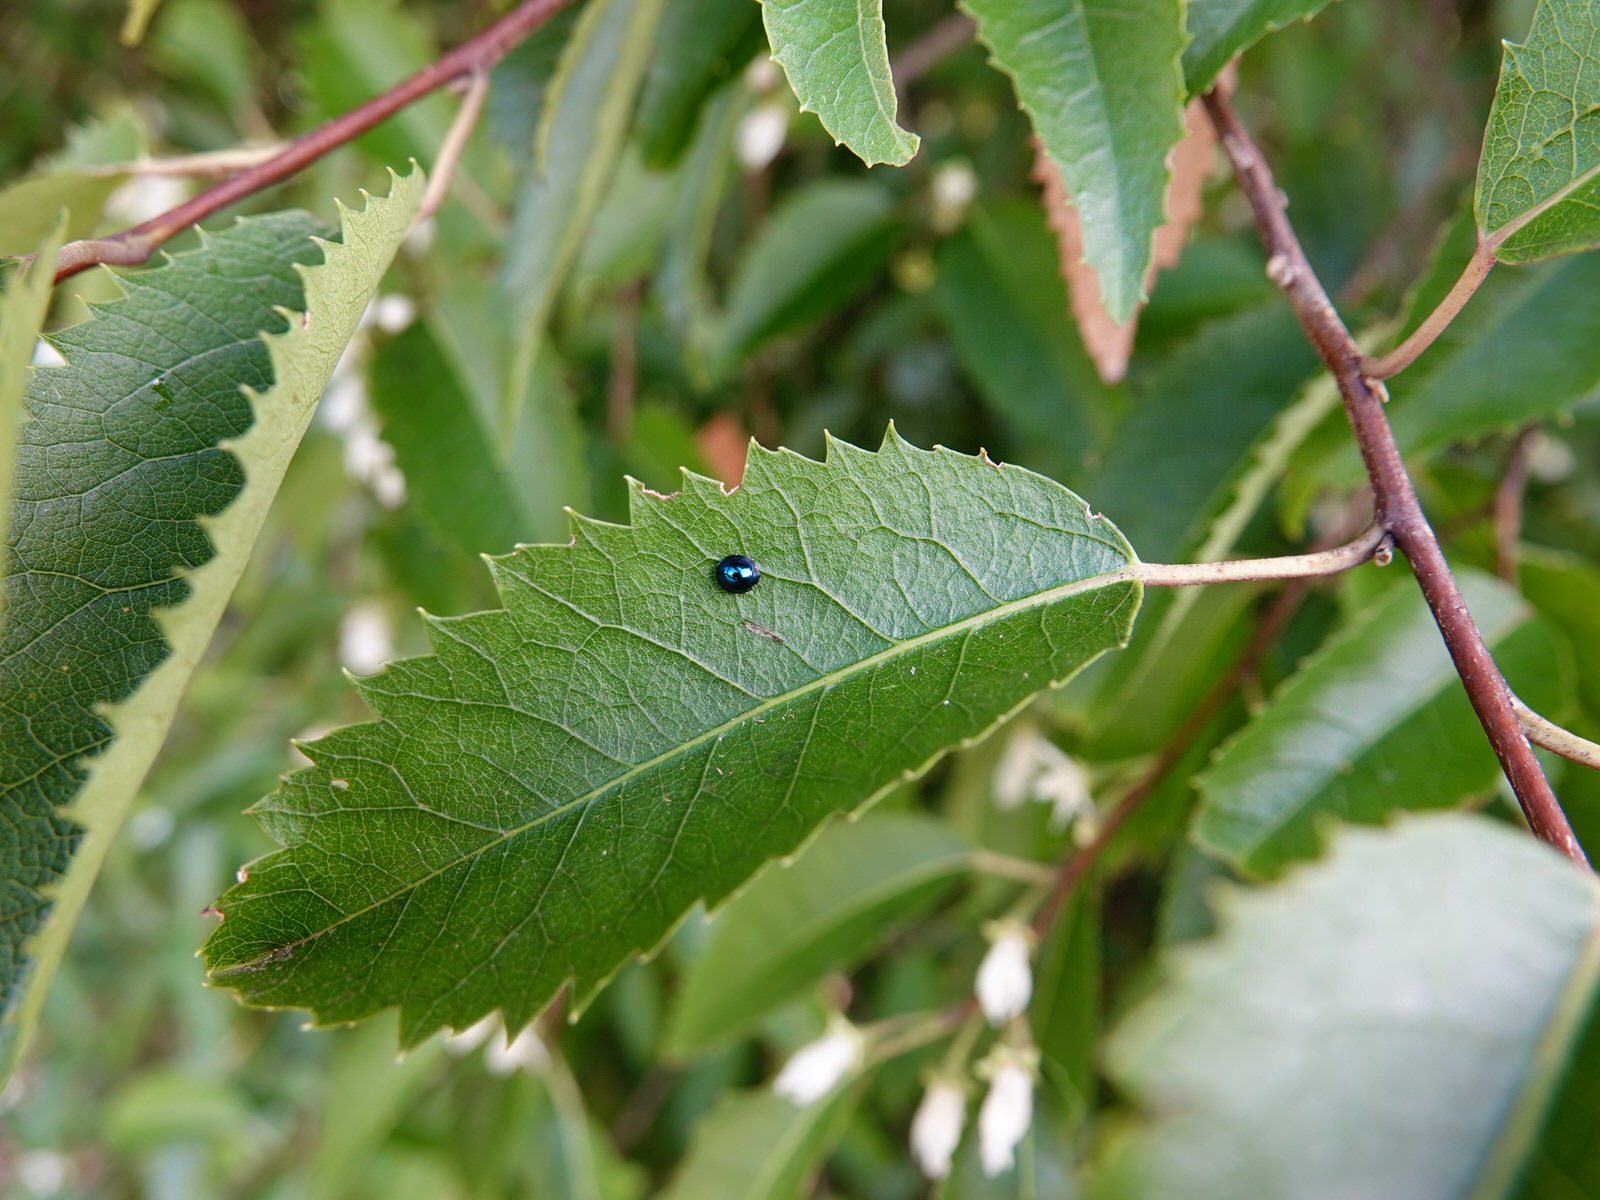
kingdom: Animalia
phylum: Arthropoda
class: Insecta
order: Coleoptera
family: Coccinellidae
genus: Halmus
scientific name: Halmus chalybeus
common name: Steel blue ladybird beetle
